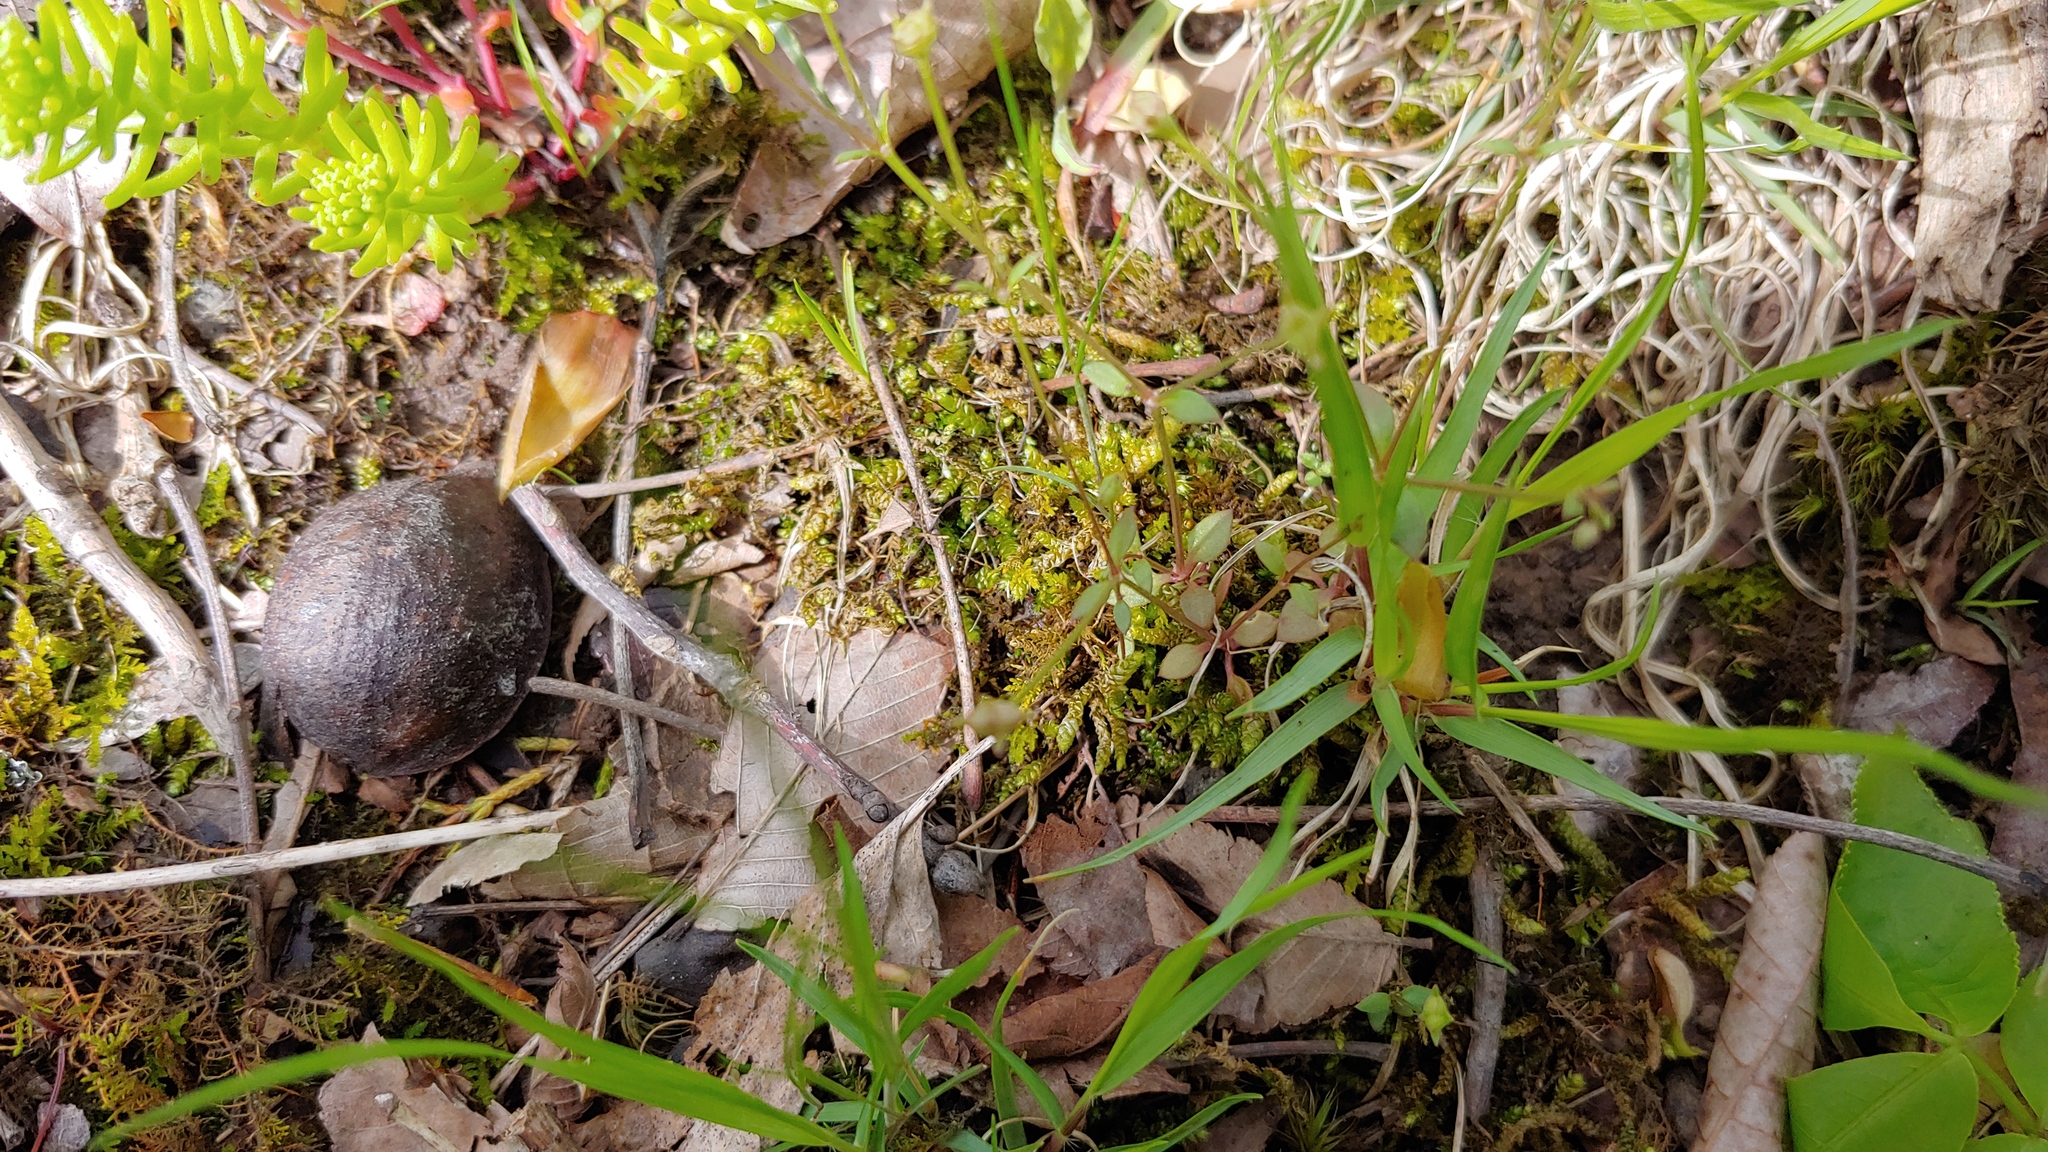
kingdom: Plantae
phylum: Tracheophyta
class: Magnoliopsida
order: Gentianales
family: Rubiaceae
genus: Houstonia
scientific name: Houstonia pusilla
